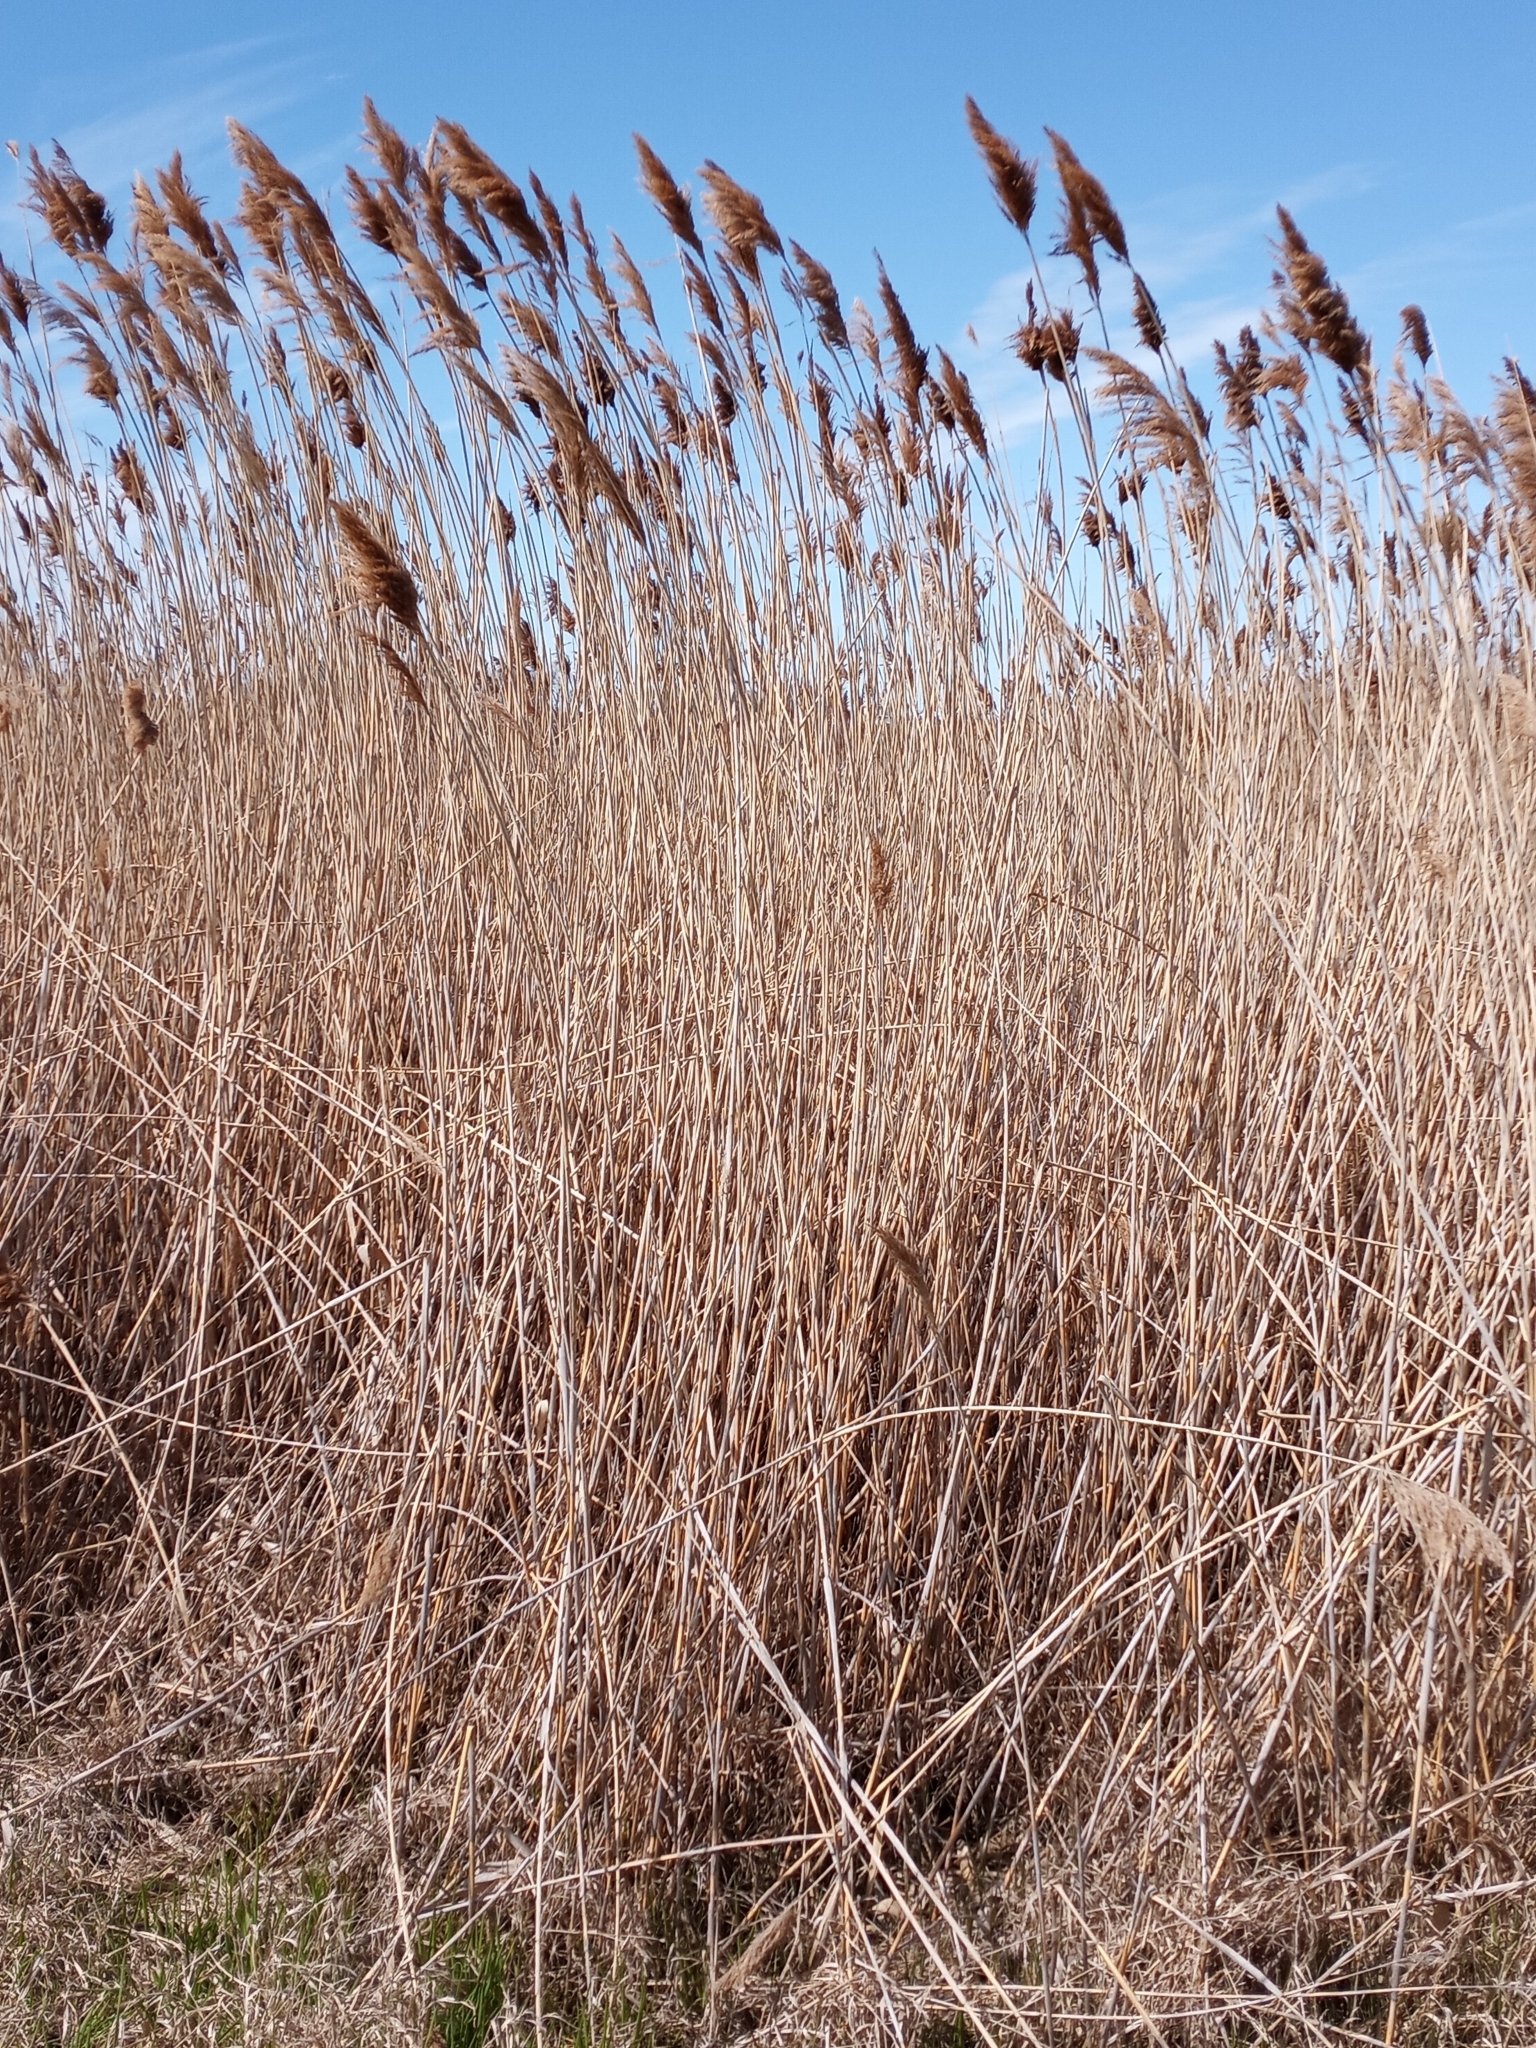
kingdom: Plantae
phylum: Tracheophyta
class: Liliopsida
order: Poales
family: Poaceae
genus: Phragmites
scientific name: Phragmites australis
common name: Common reed
